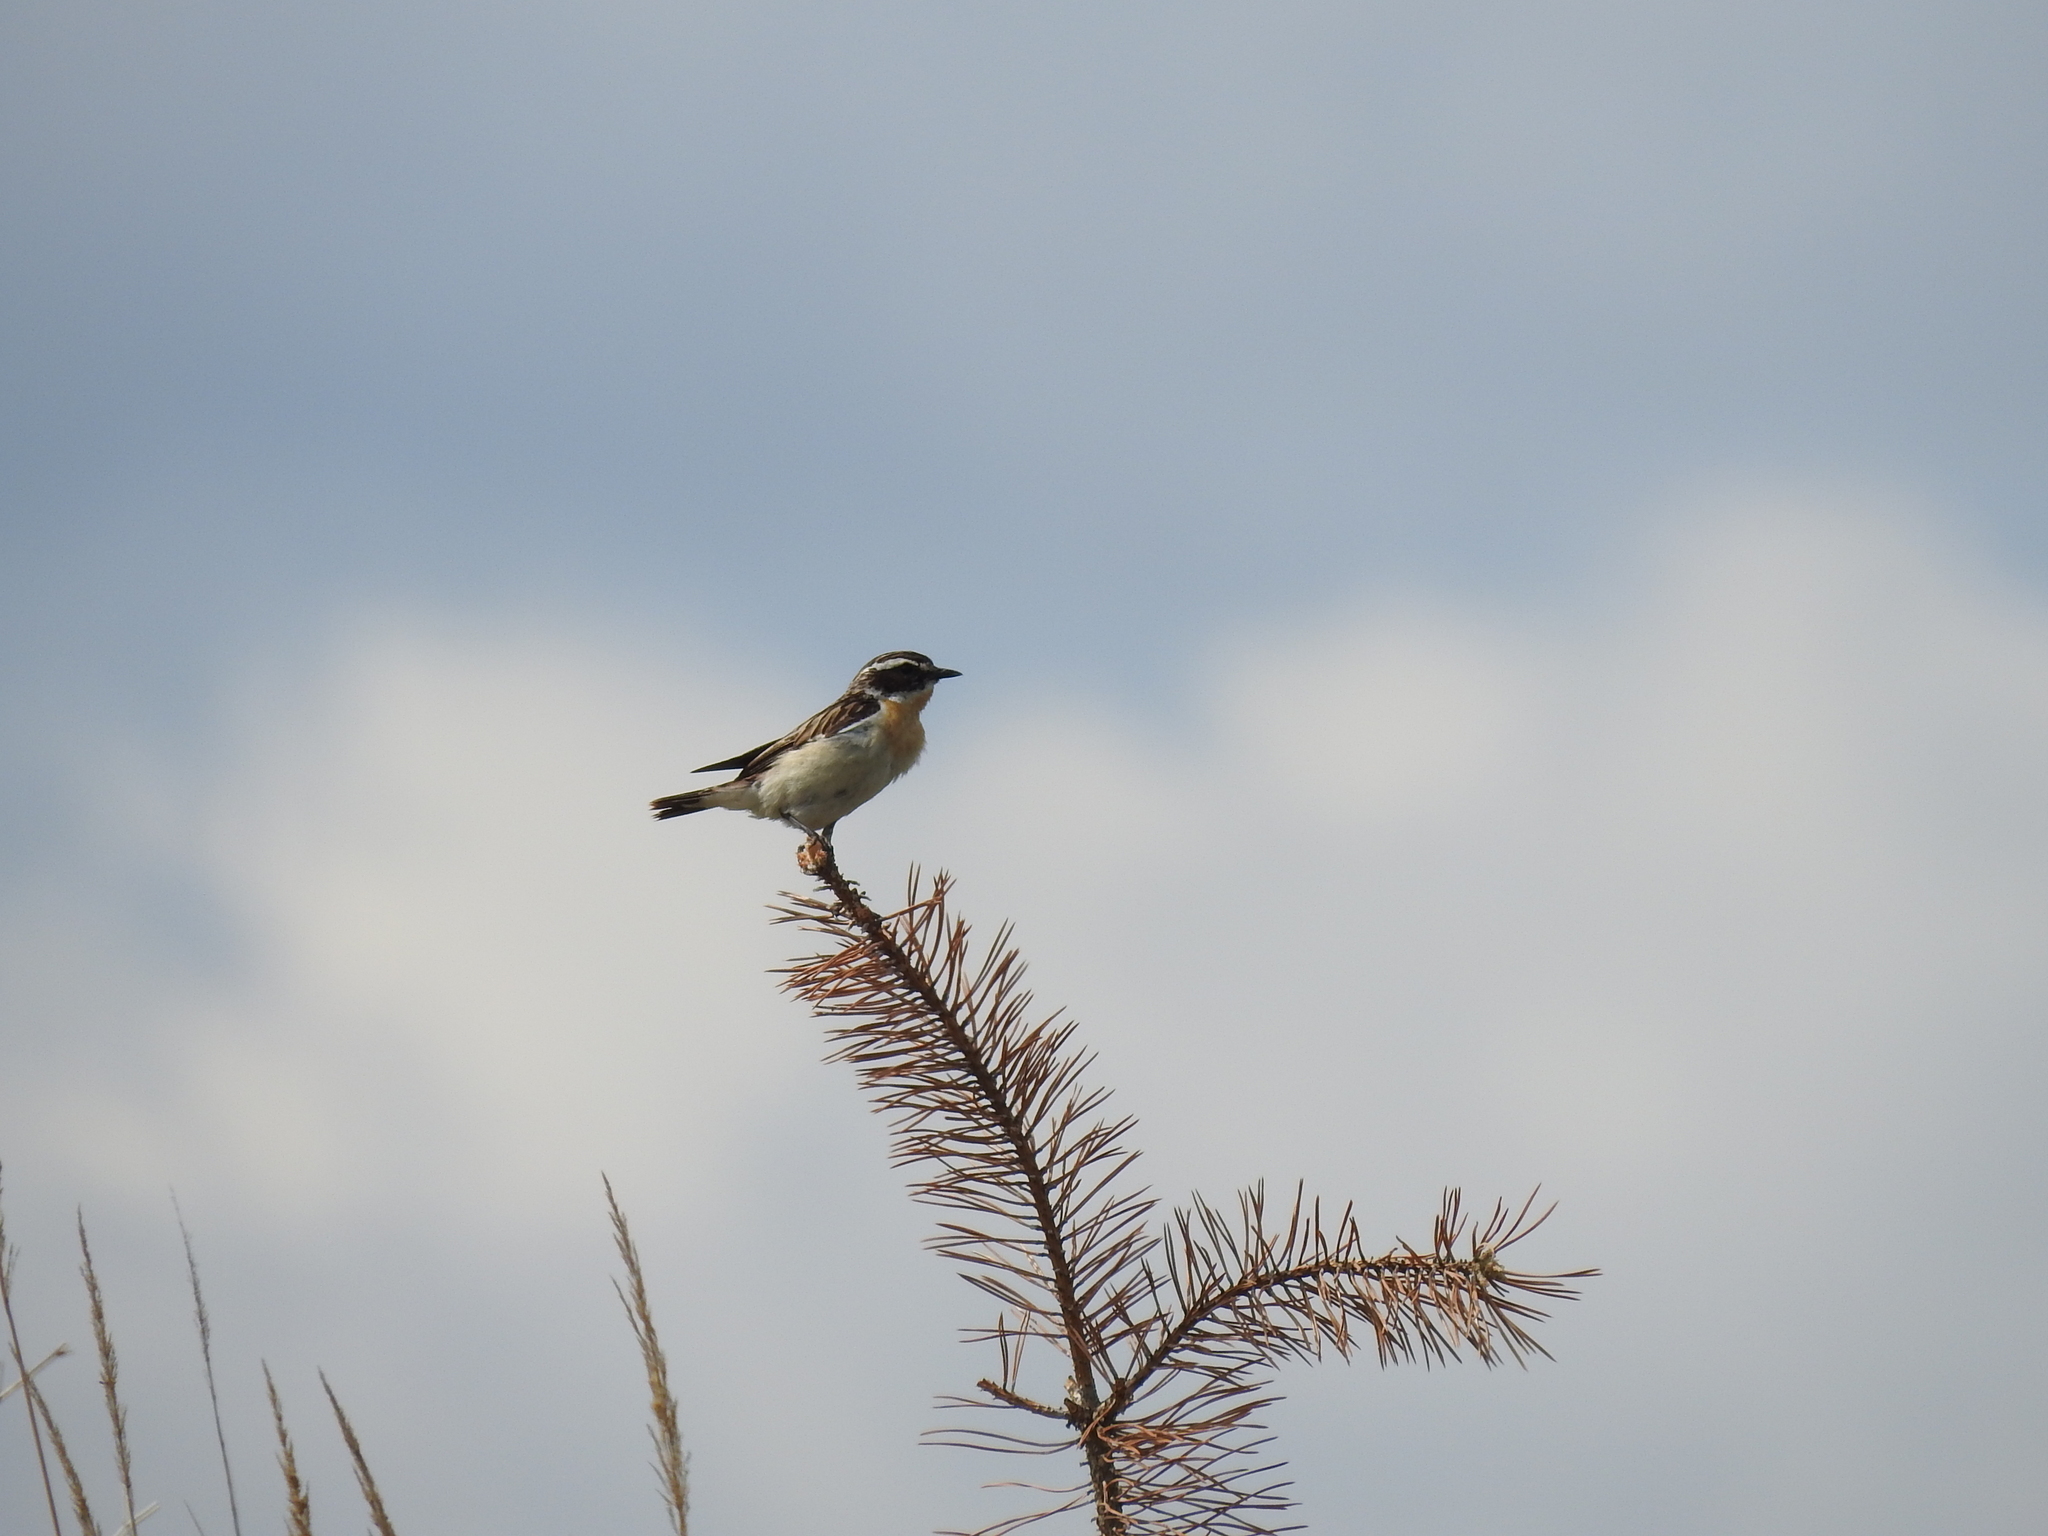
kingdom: Animalia
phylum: Chordata
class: Aves
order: Passeriformes
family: Muscicapidae
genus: Saxicola
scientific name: Saxicola rubetra
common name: Whinchat
